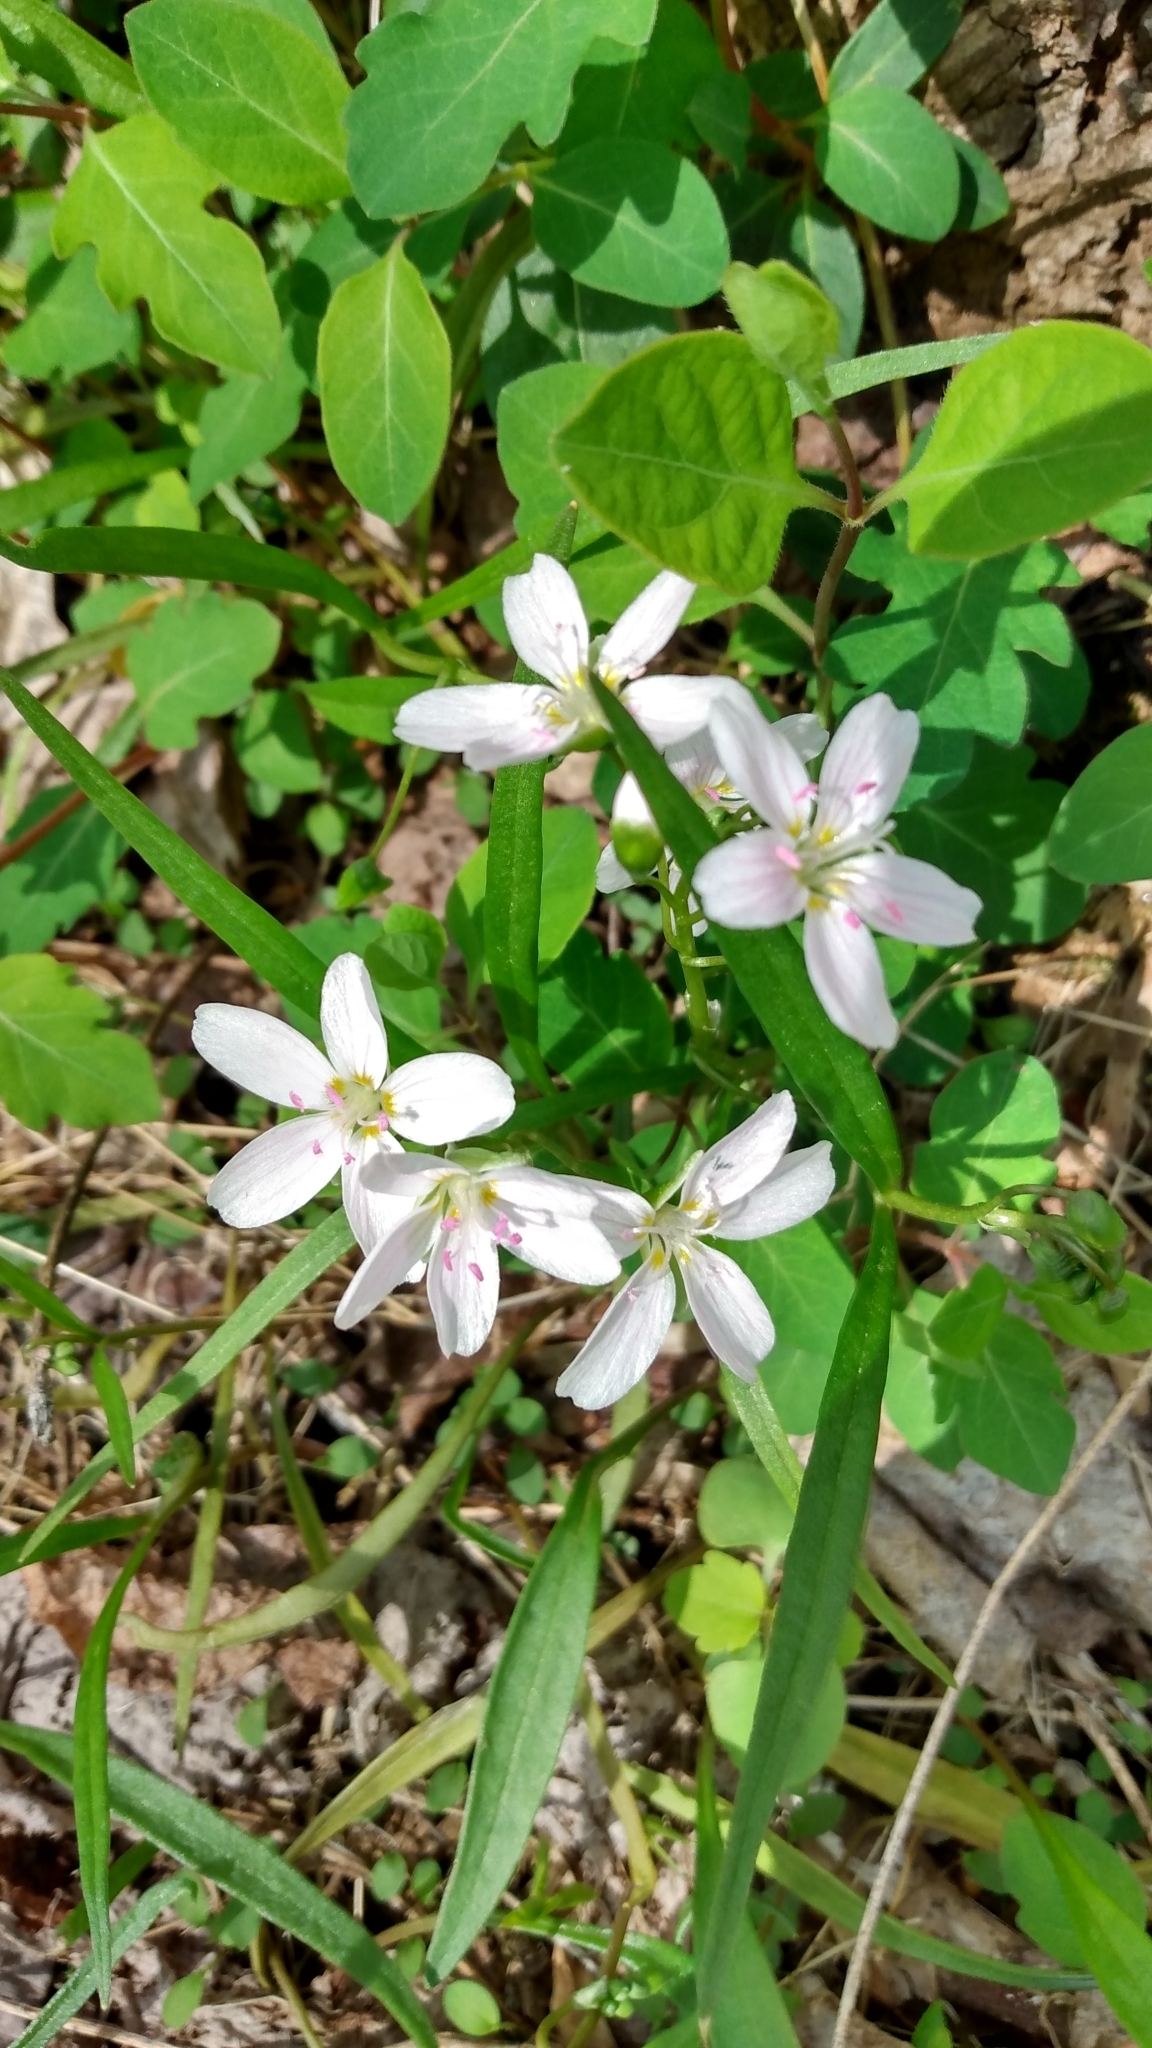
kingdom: Plantae
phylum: Tracheophyta
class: Magnoliopsida
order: Caryophyllales
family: Montiaceae
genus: Claytonia
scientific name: Claytonia virginica
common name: Virginia springbeauty
